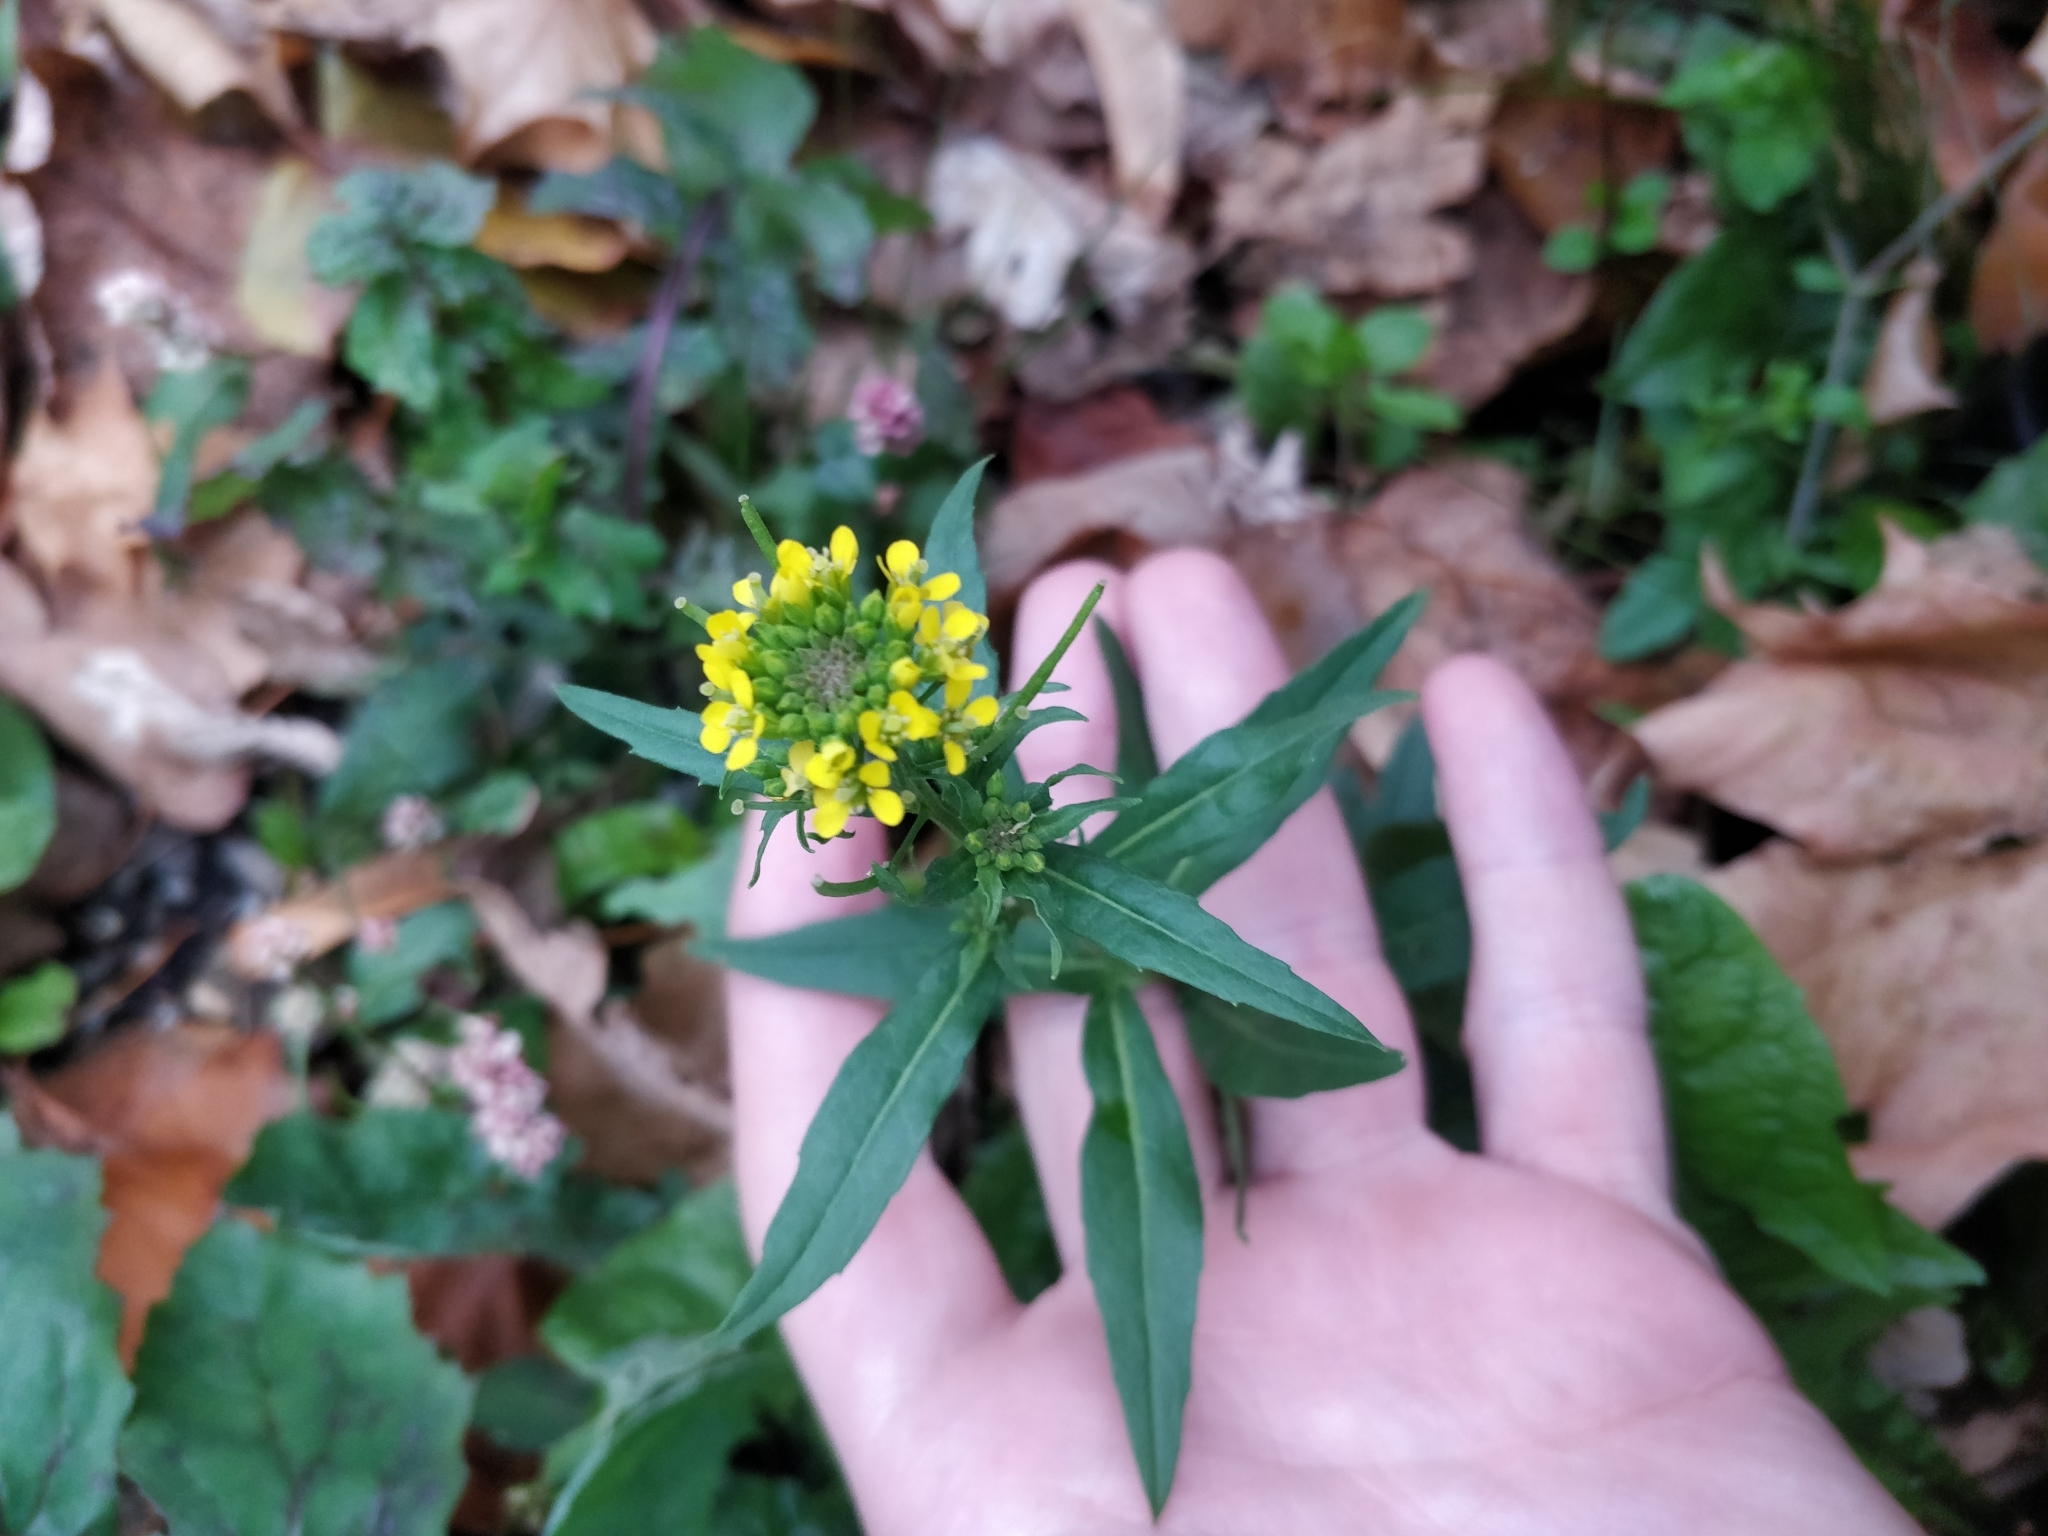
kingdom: Plantae
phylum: Tracheophyta
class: Magnoliopsida
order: Brassicales
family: Brassicaceae
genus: Erysimum
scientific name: Erysimum cheiranthoides
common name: Treacle mustard
